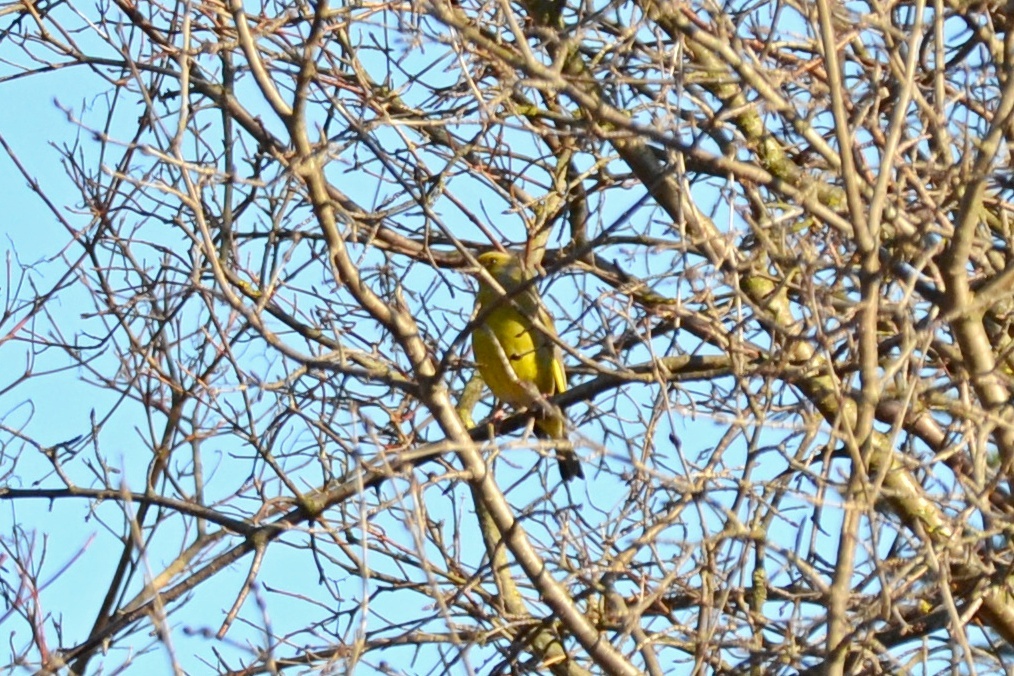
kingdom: Plantae
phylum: Tracheophyta
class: Liliopsida
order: Poales
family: Poaceae
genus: Chloris
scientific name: Chloris chloris
